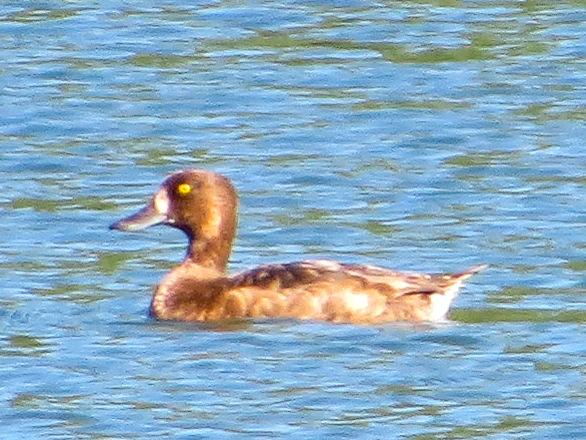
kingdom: Animalia
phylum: Chordata
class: Aves
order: Anseriformes
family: Anatidae
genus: Aythya
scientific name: Aythya fuligula
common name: Tufted duck
